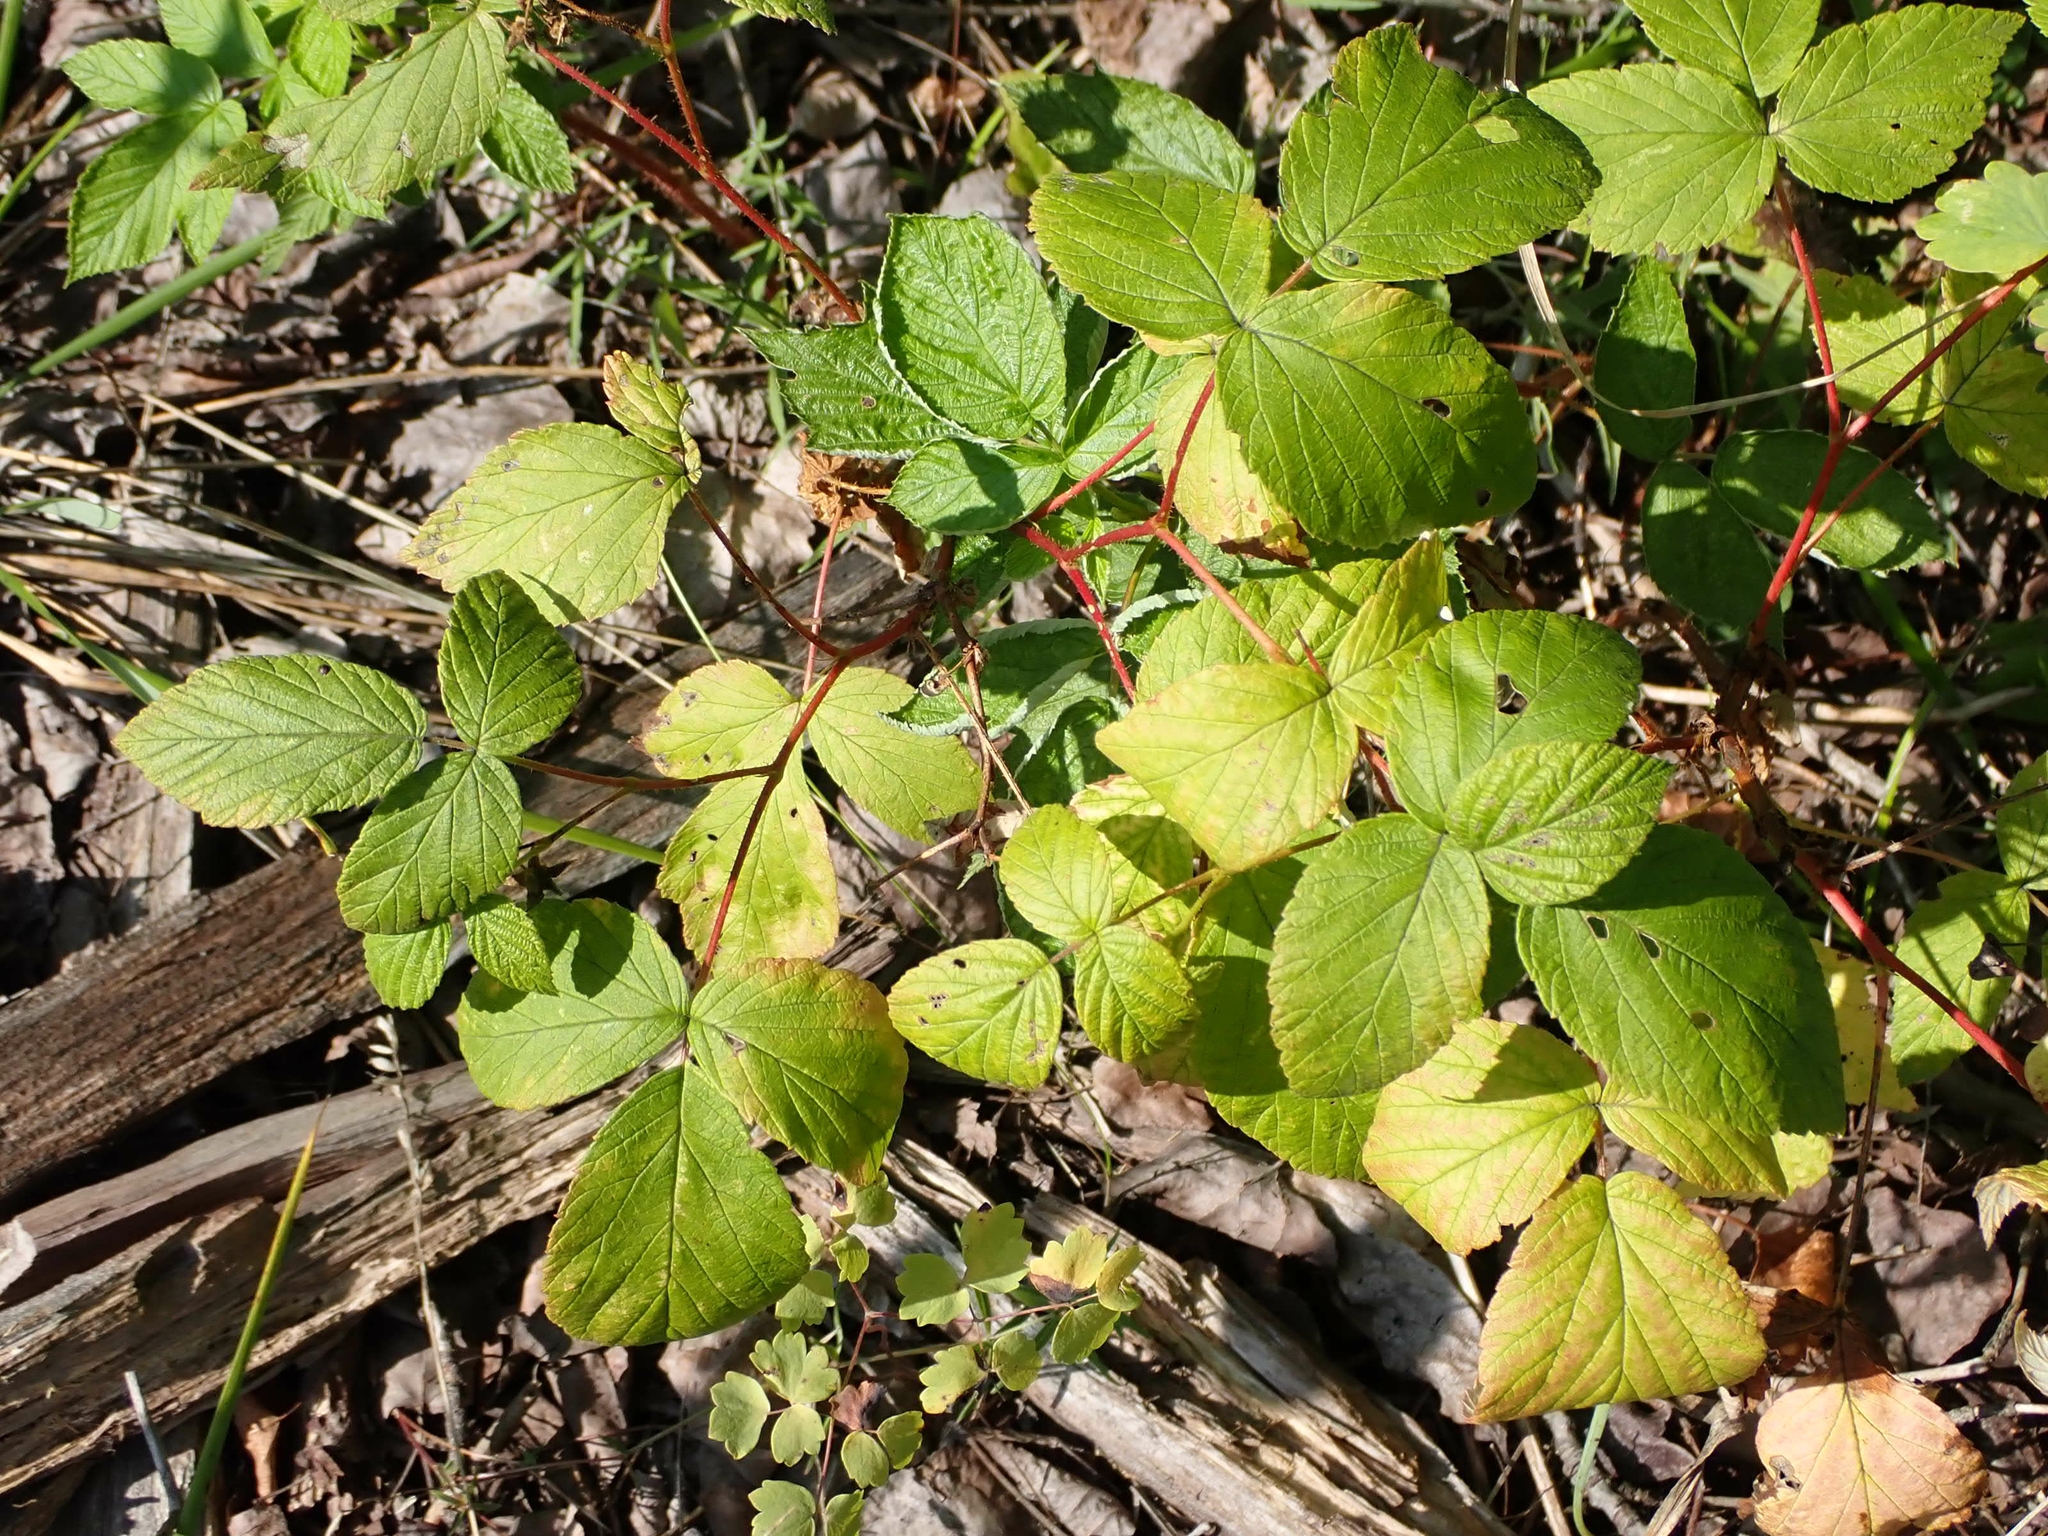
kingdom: Plantae
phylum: Tracheophyta
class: Magnoliopsida
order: Rosales
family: Rosaceae
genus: Rubus
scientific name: Rubus idaeus
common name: Raspberry
